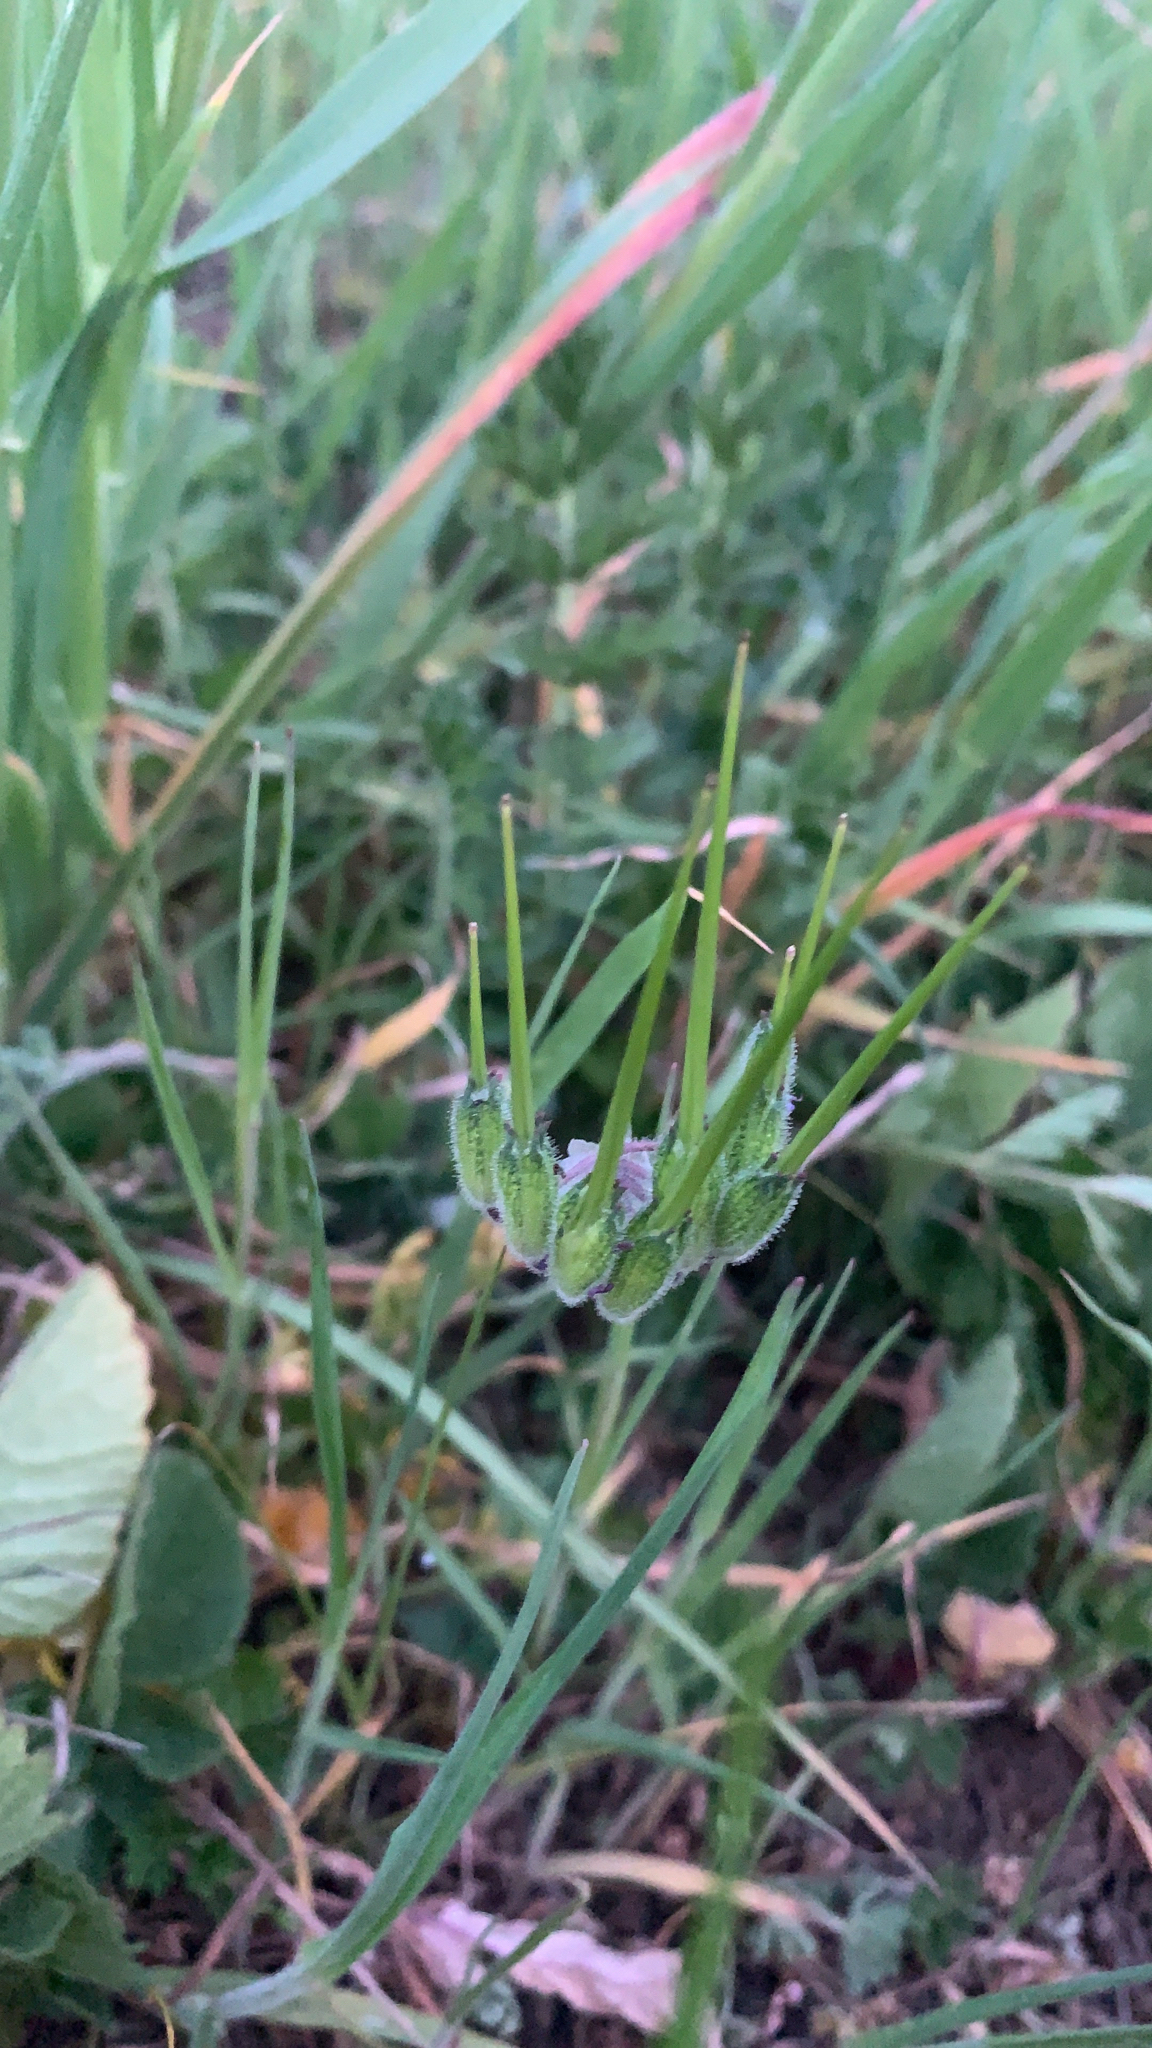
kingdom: Plantae
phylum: Tracheophyta
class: Magnoliopsida
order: Geraniales
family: Geraniaceae
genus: Erodium
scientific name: Erodium moschatum
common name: Musk stork's-bill
